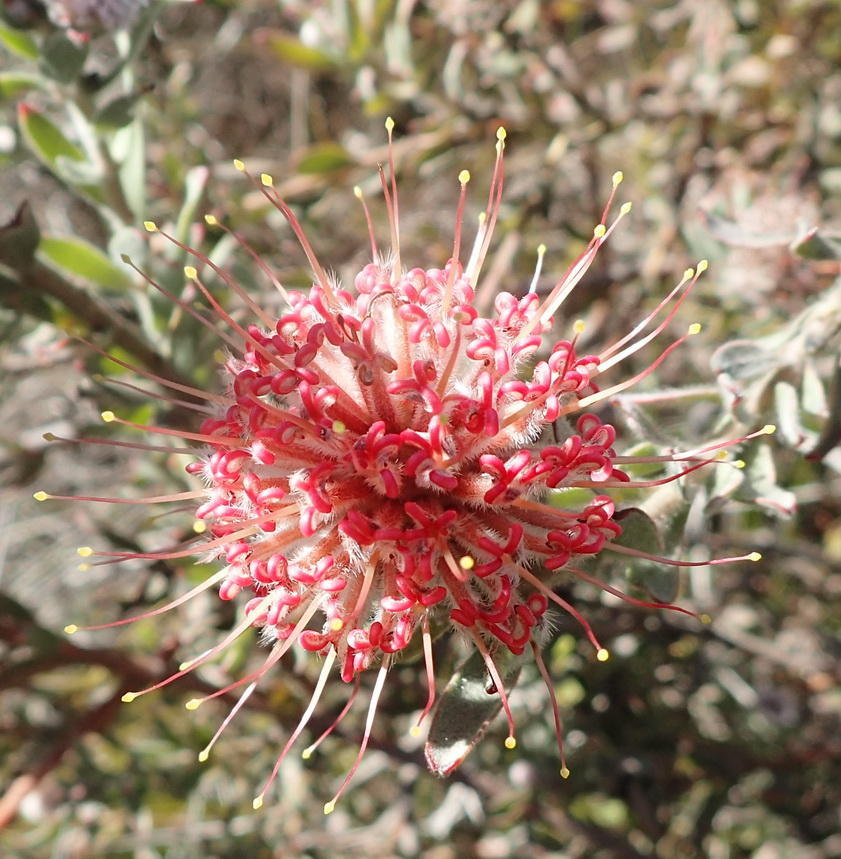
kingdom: Plantae
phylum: Tracheophyta
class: Magnoliopsida
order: Proteales
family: Proteaceae
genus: Leucospermum
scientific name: Leucospermum calligerum
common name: Arid pincushion
